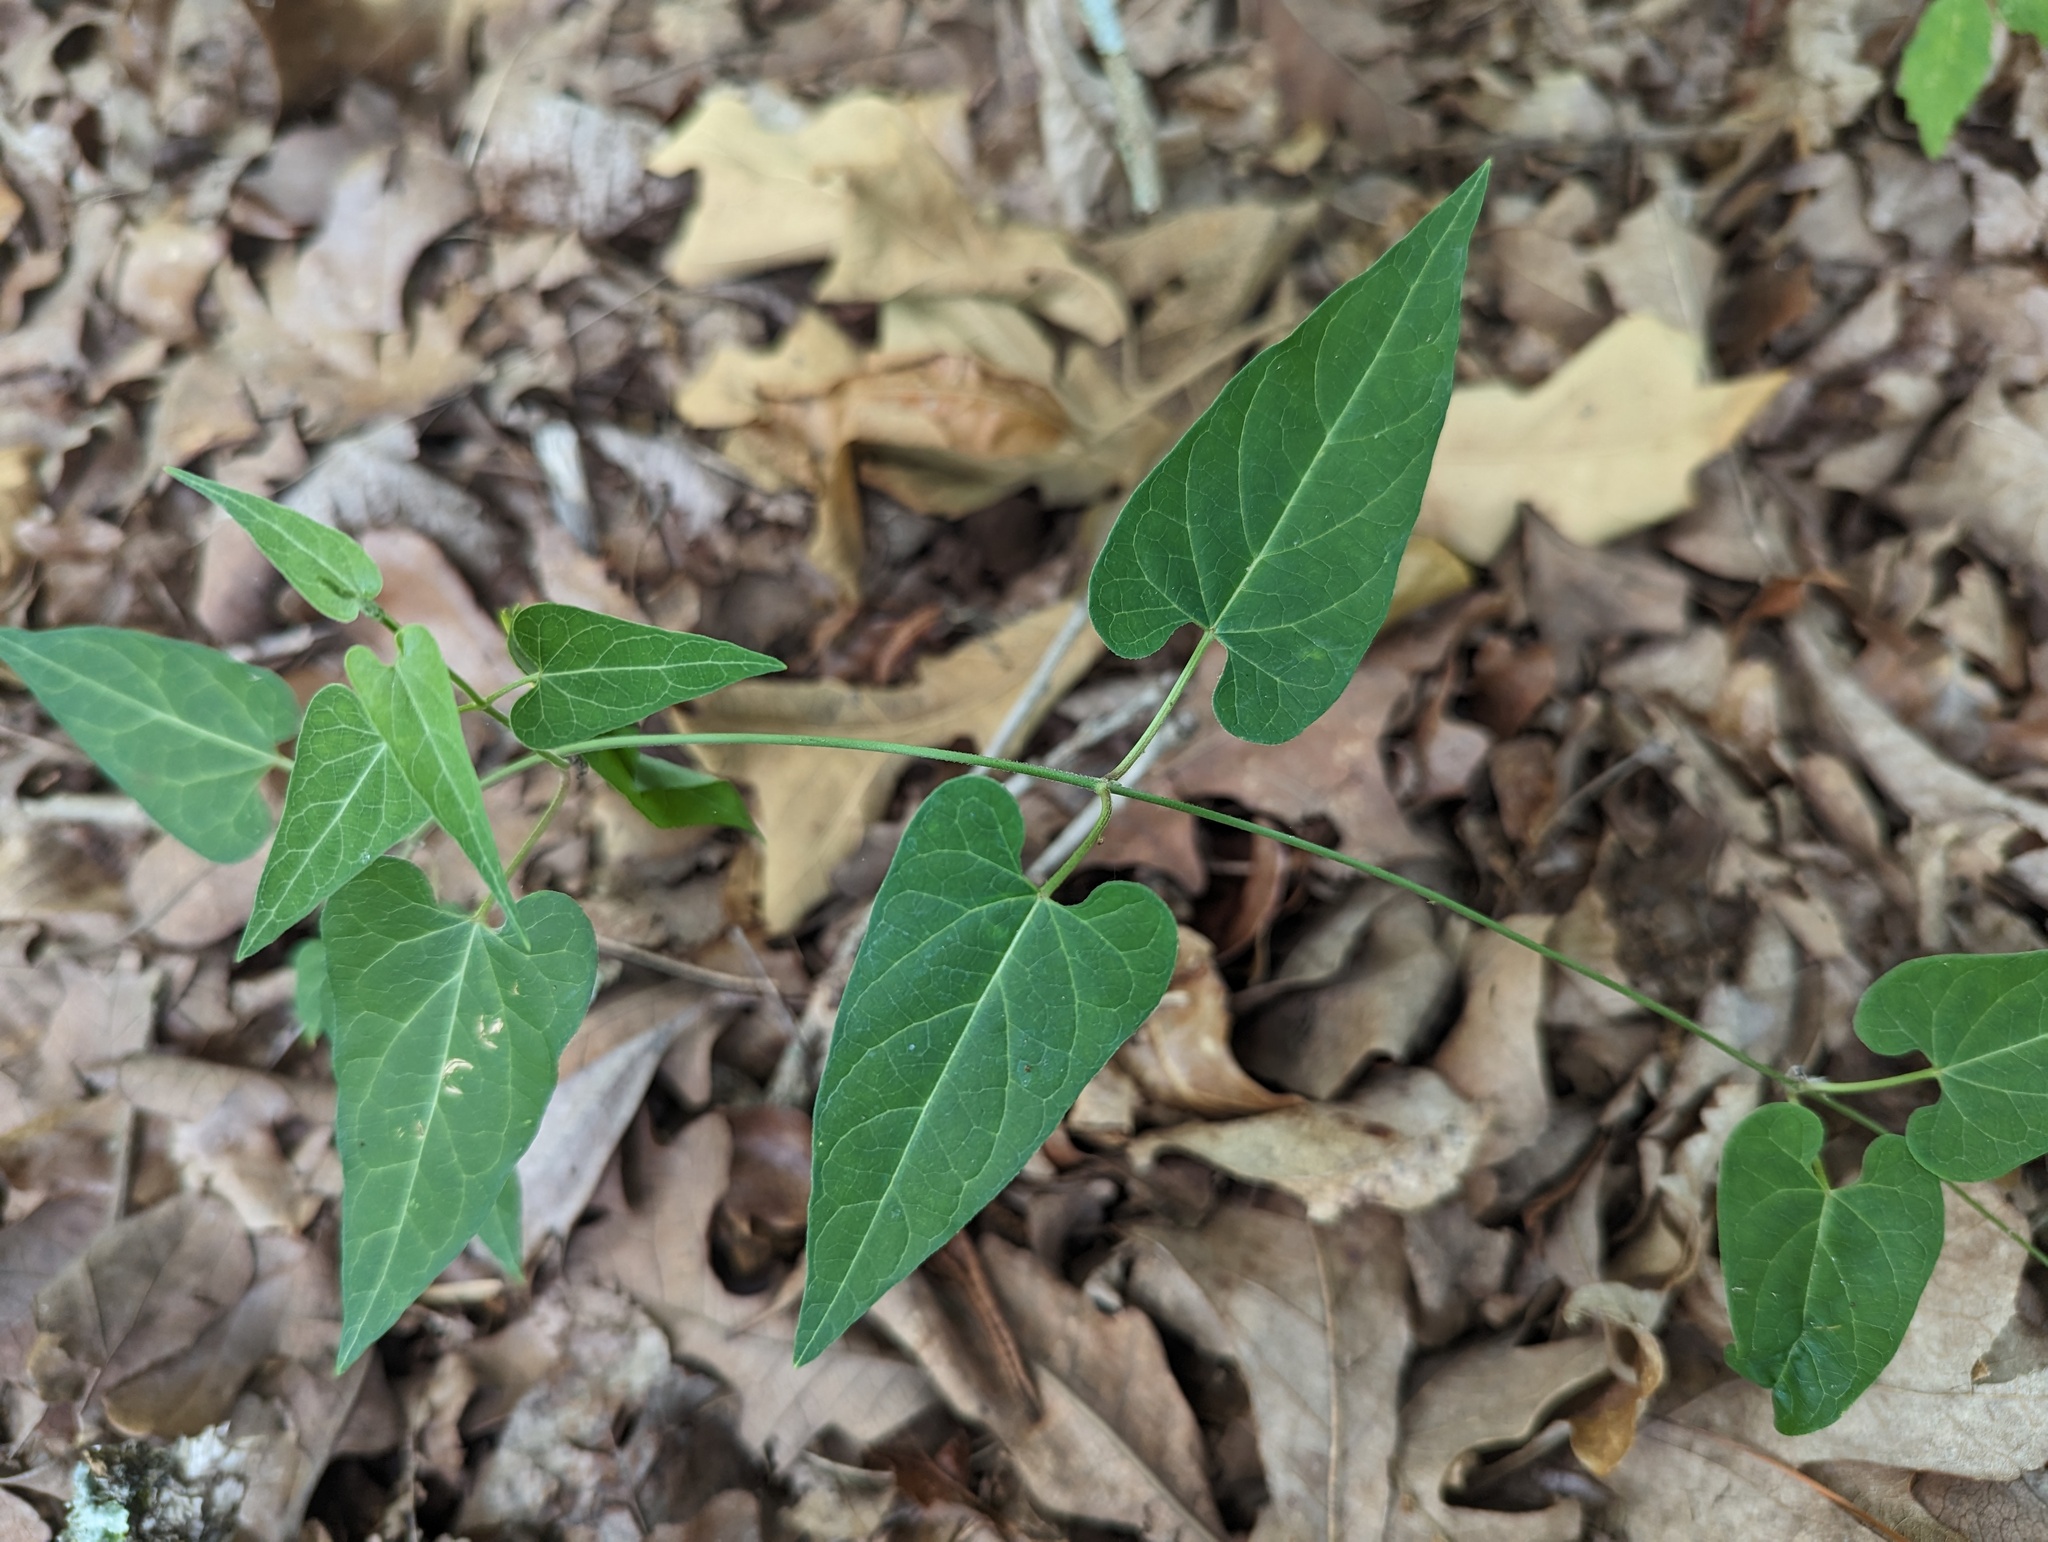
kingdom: Plantae
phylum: Tracheophyta
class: Magnoliopsida
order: Gentianales
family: Apocynaceae
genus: Cynanchum
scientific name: Cynanchum laeve
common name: Sandvine
